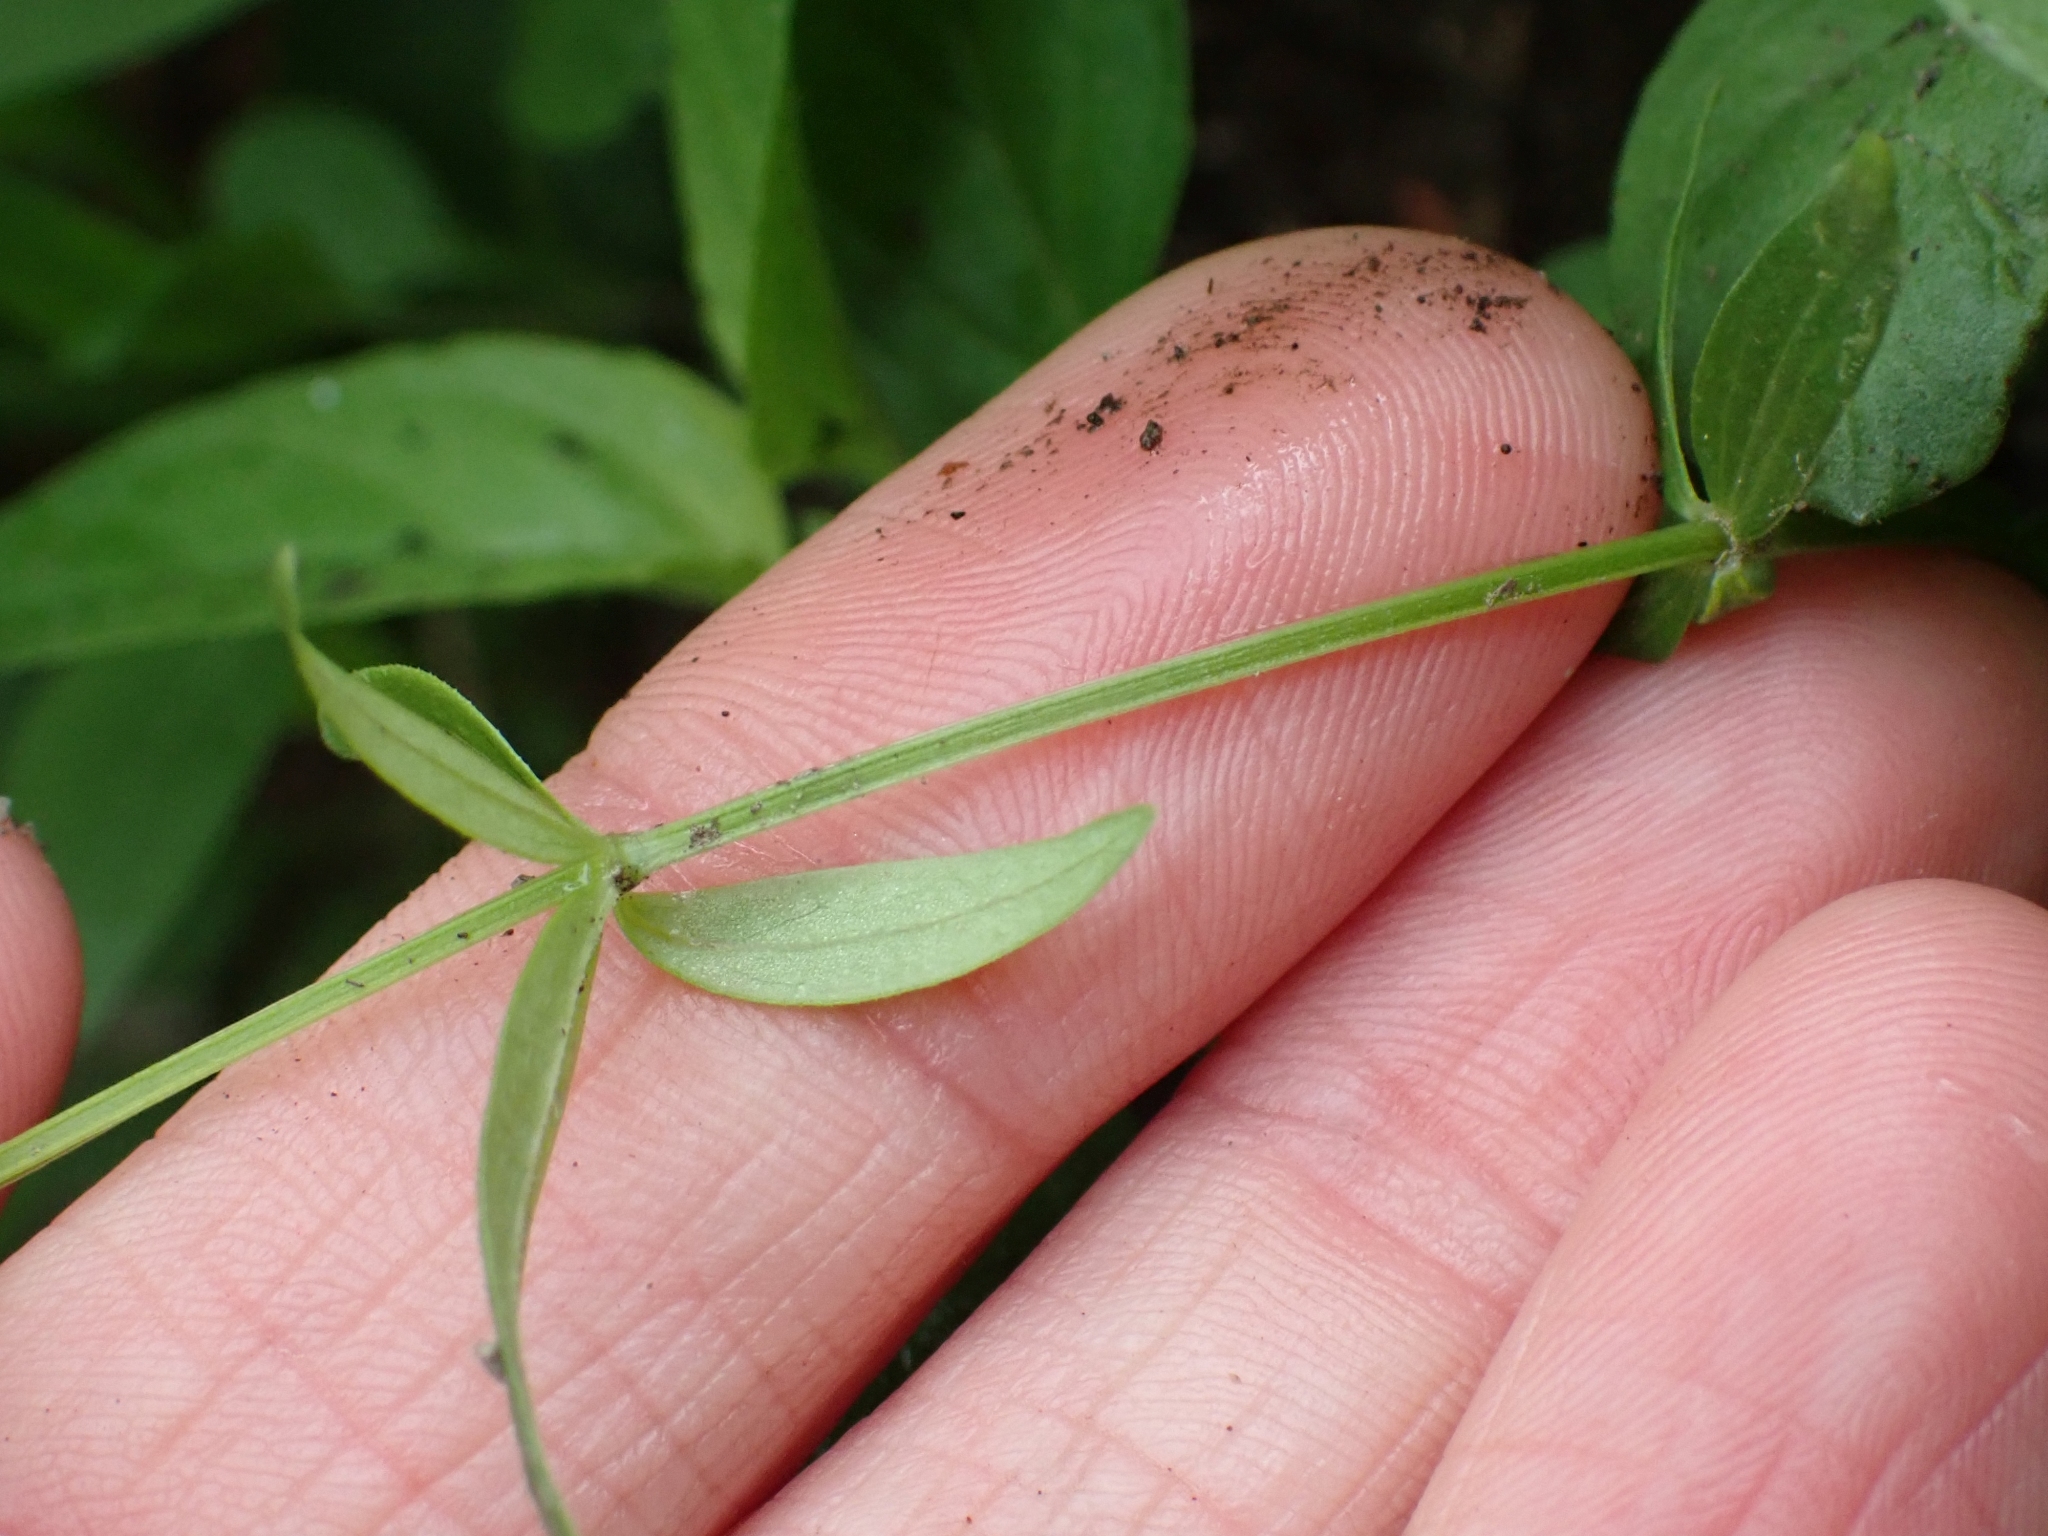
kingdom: Plantae
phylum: Tracheophyta
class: Magnoliopsida
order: Gentianales
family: Rubiaceae
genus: Galium
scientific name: Galium boreale
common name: Northern bedstraw
